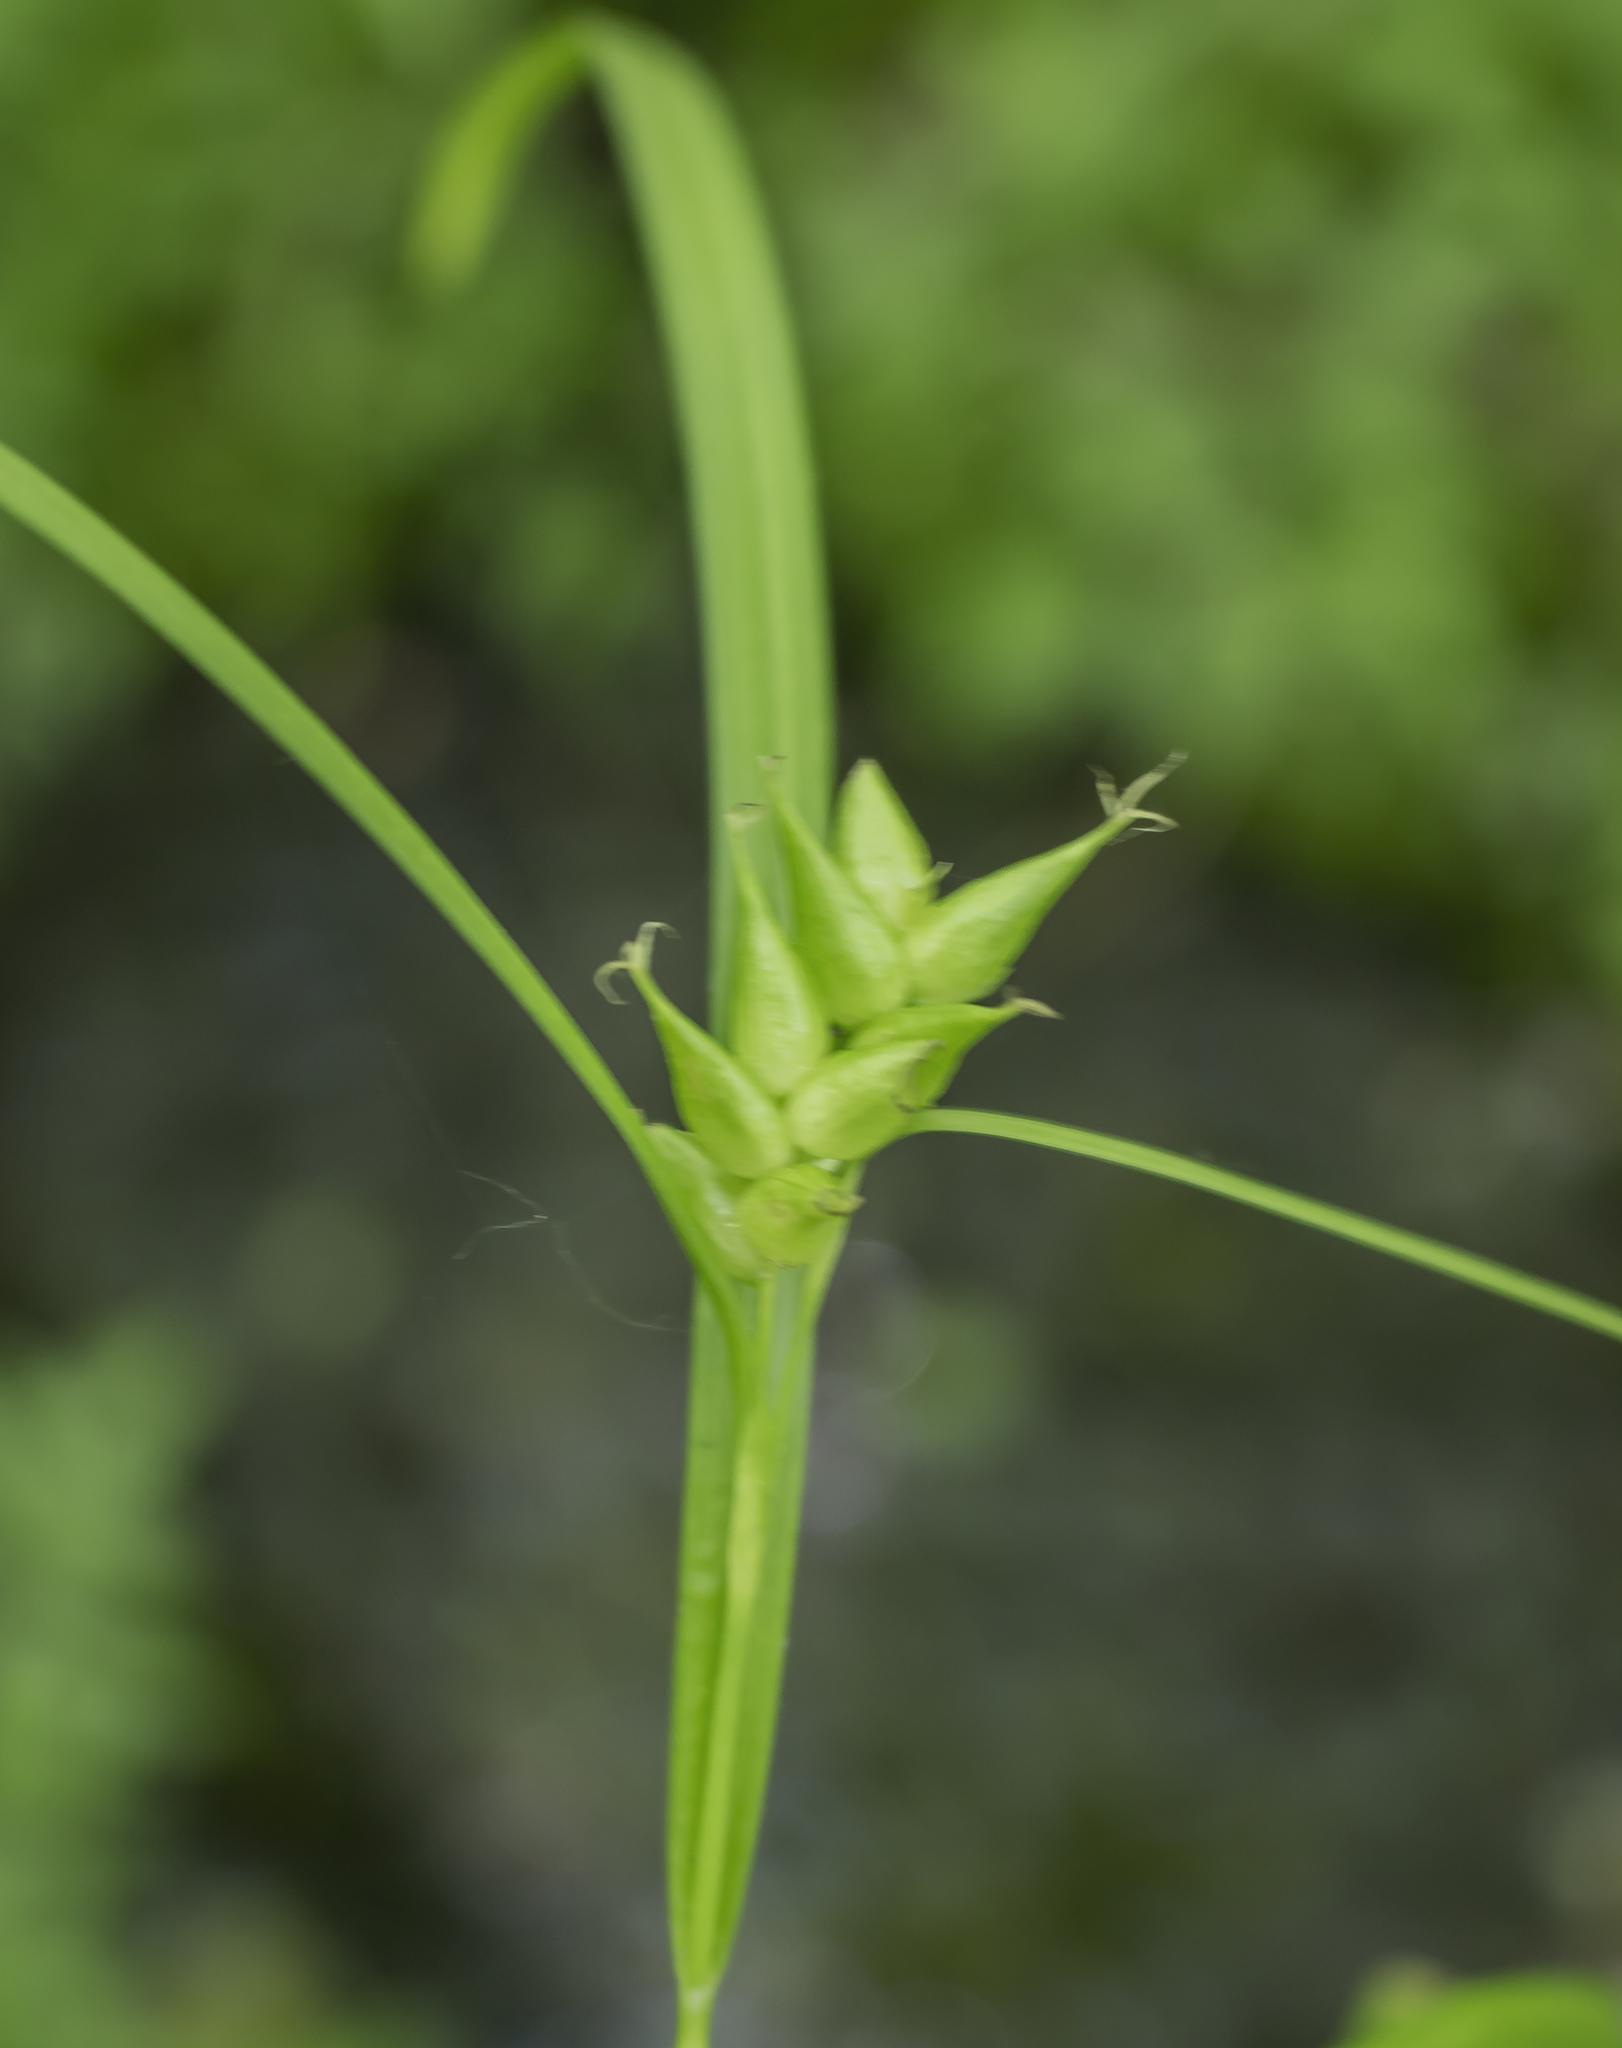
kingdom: Plantae
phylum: Tracheophyta
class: Liliopsida
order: Poales
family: Cyperaceae
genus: Carex
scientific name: Carex intumescens
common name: Greater bladder sedge
